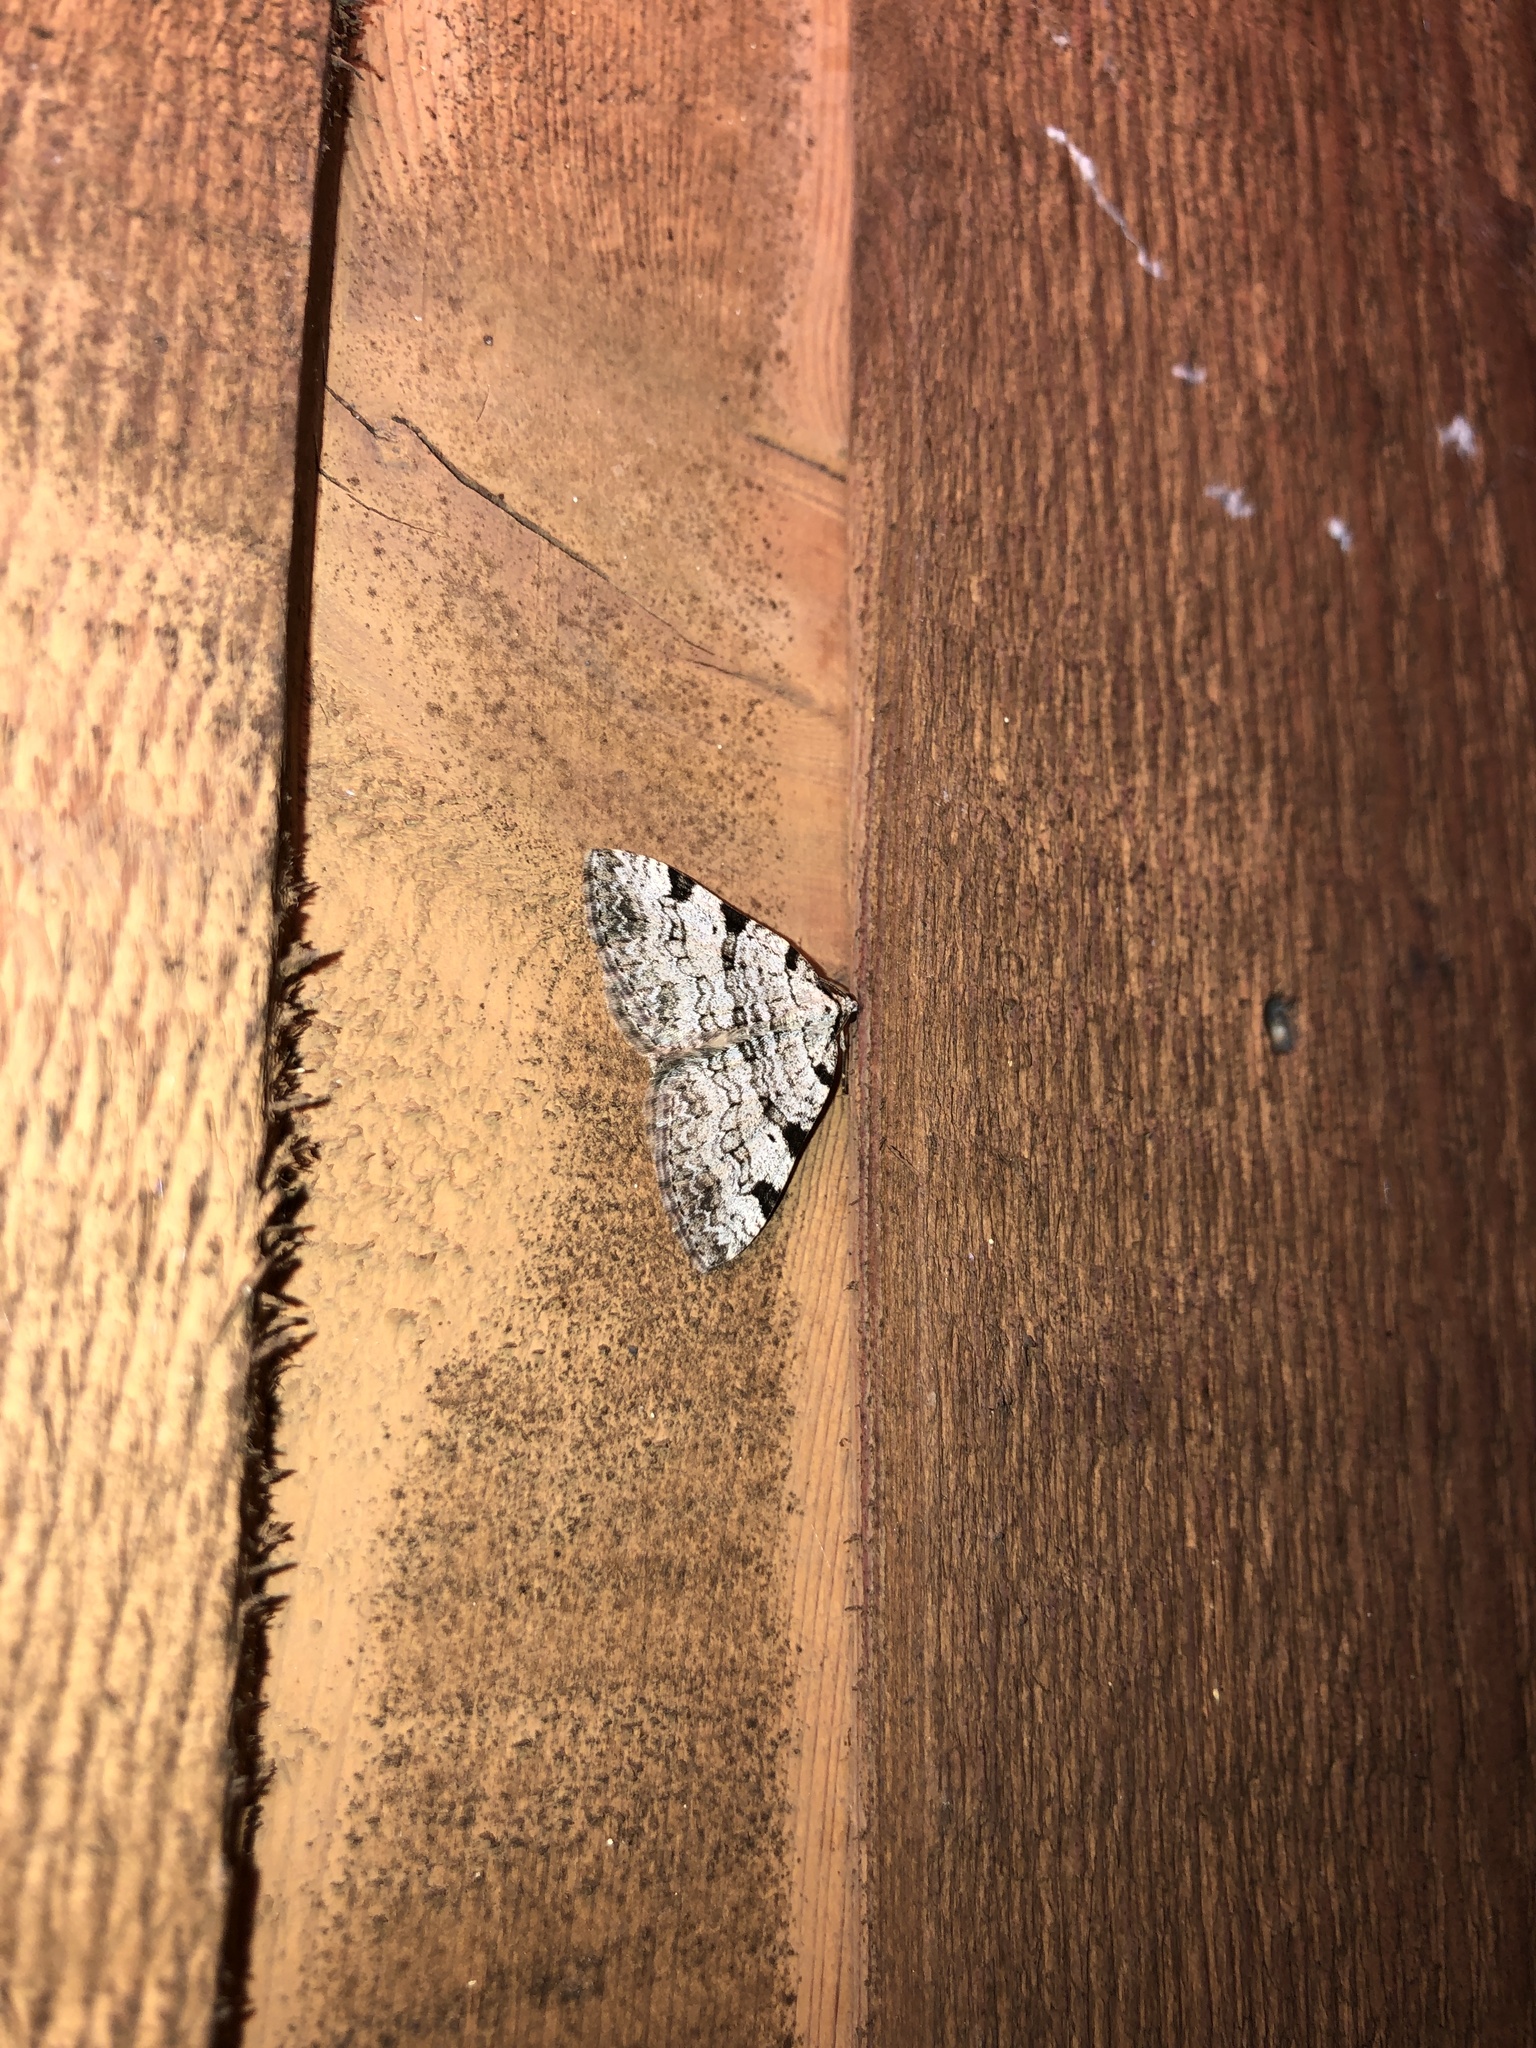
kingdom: Animalia
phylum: Arthropoda
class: Insecta
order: Lepidoptera
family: Geometridae
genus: Perizoma
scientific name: Perizoma costiguttata
